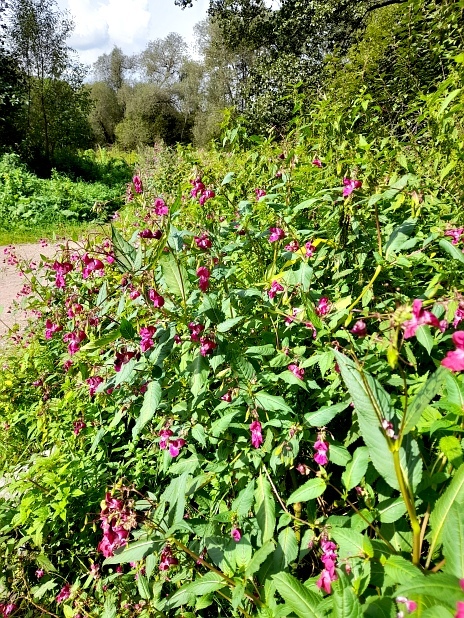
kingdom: Plantae
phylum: Tracheophyta
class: Magnoliopsida
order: Ericales
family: Balsaminaceae
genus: Impatiens
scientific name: Impatiens glandulifera
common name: Himalayan balsam
